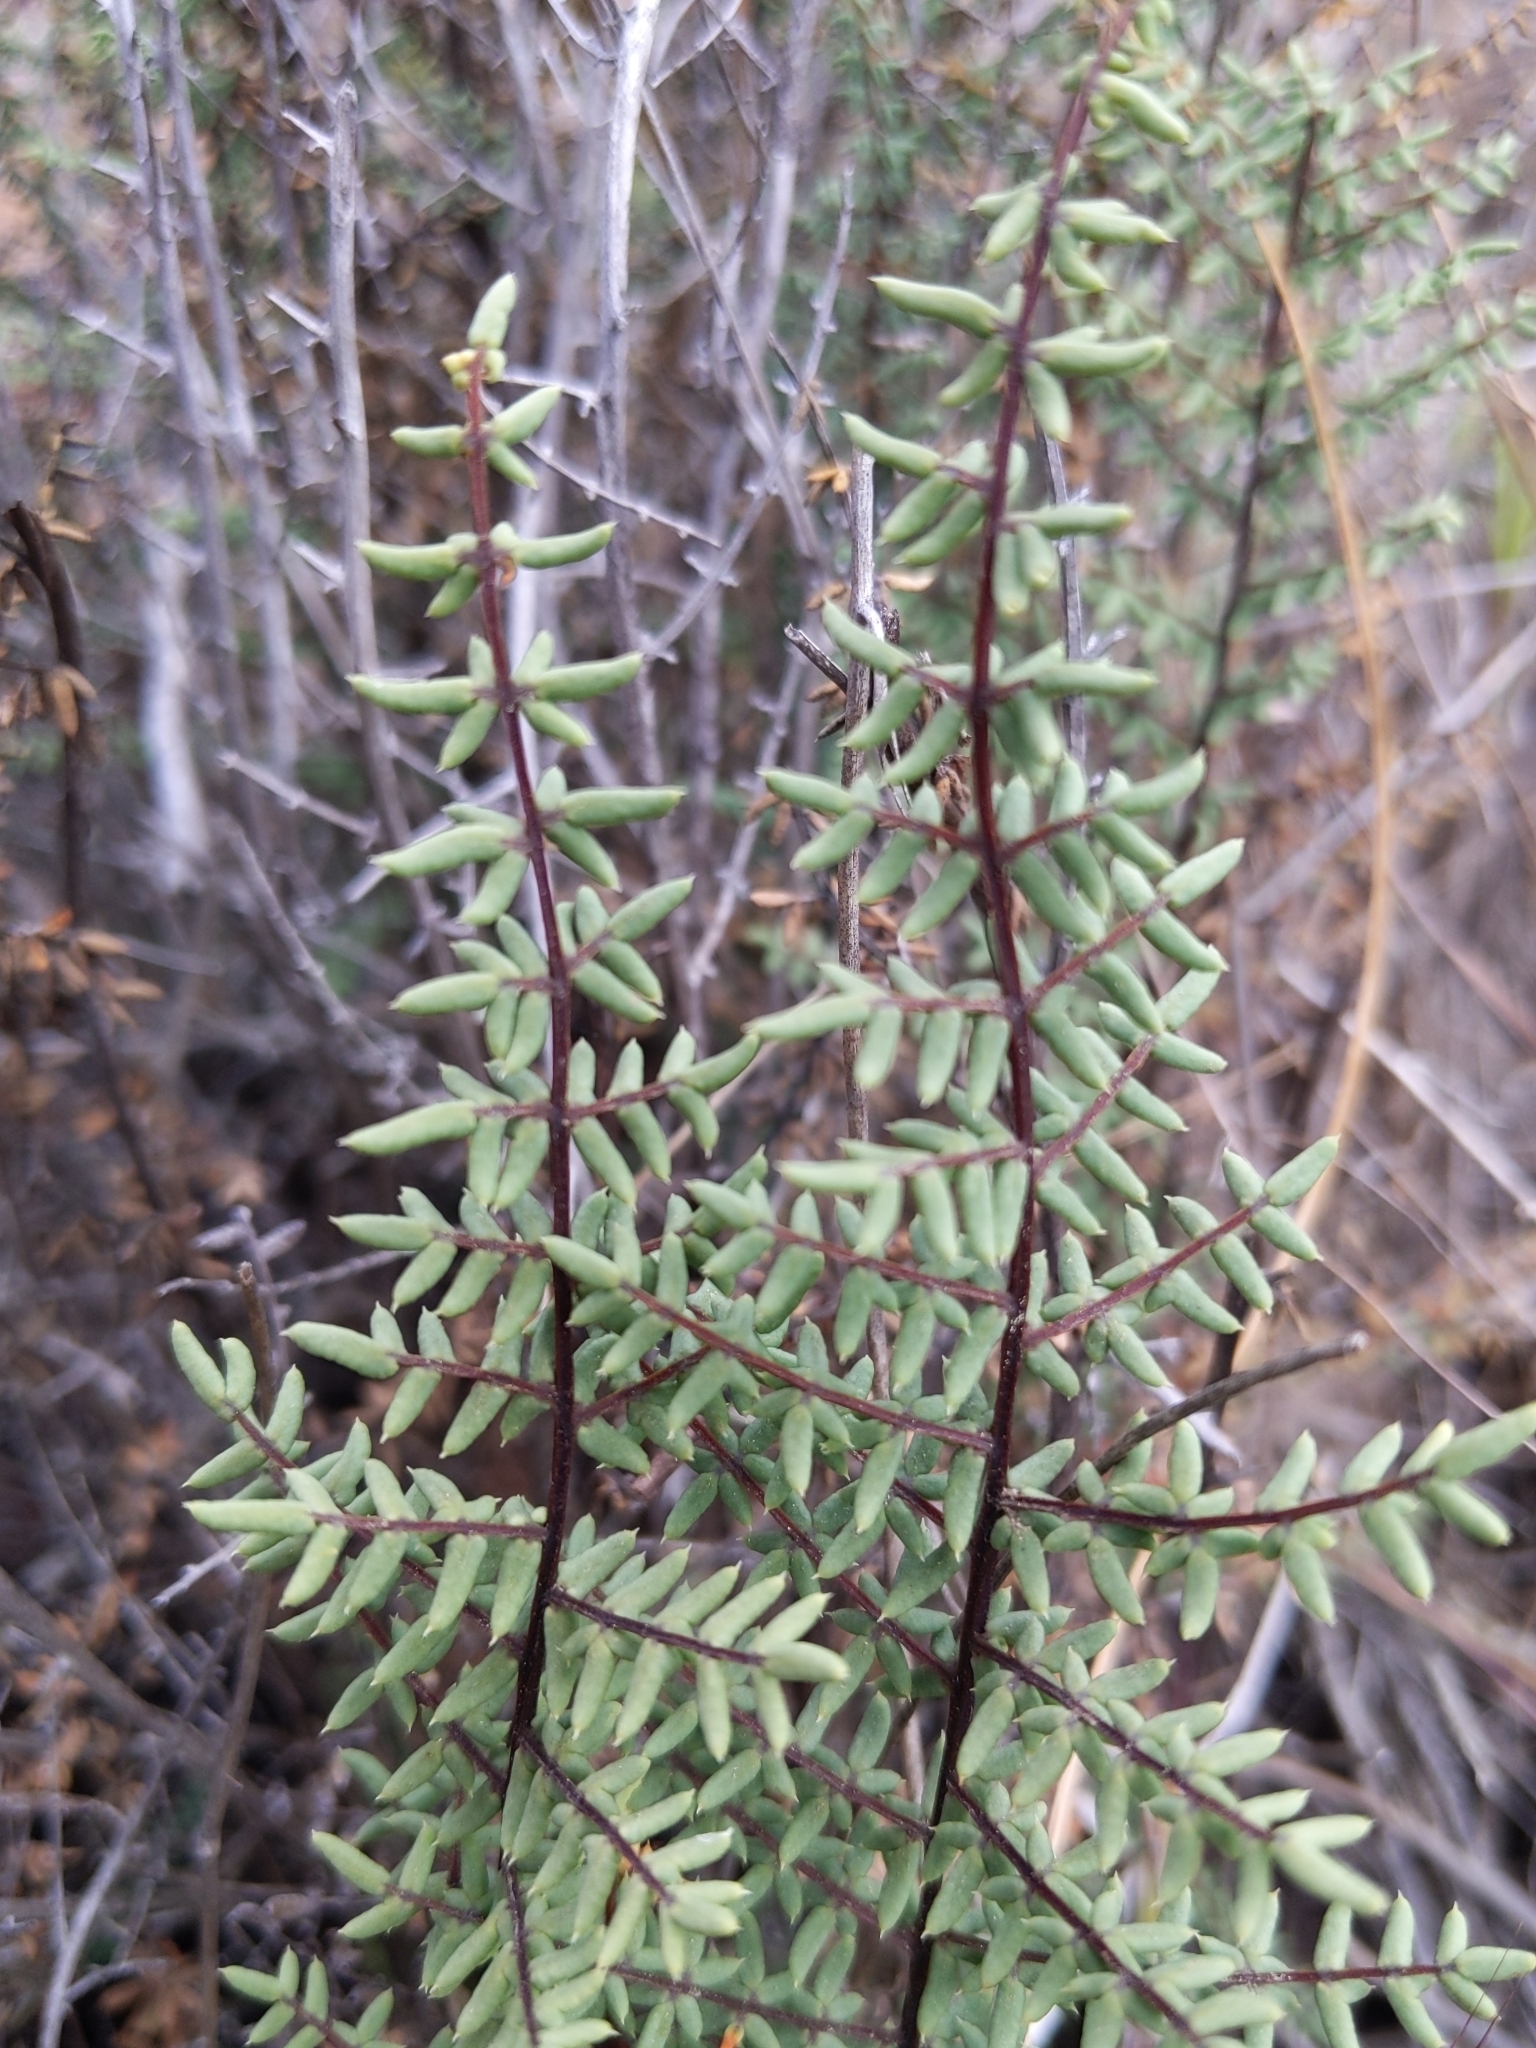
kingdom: Plantae
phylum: Tracheophyta
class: Polypodiopsida
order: Polypodiales
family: Pteridaceae
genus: Pellaea
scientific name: Pellaea mucronata
